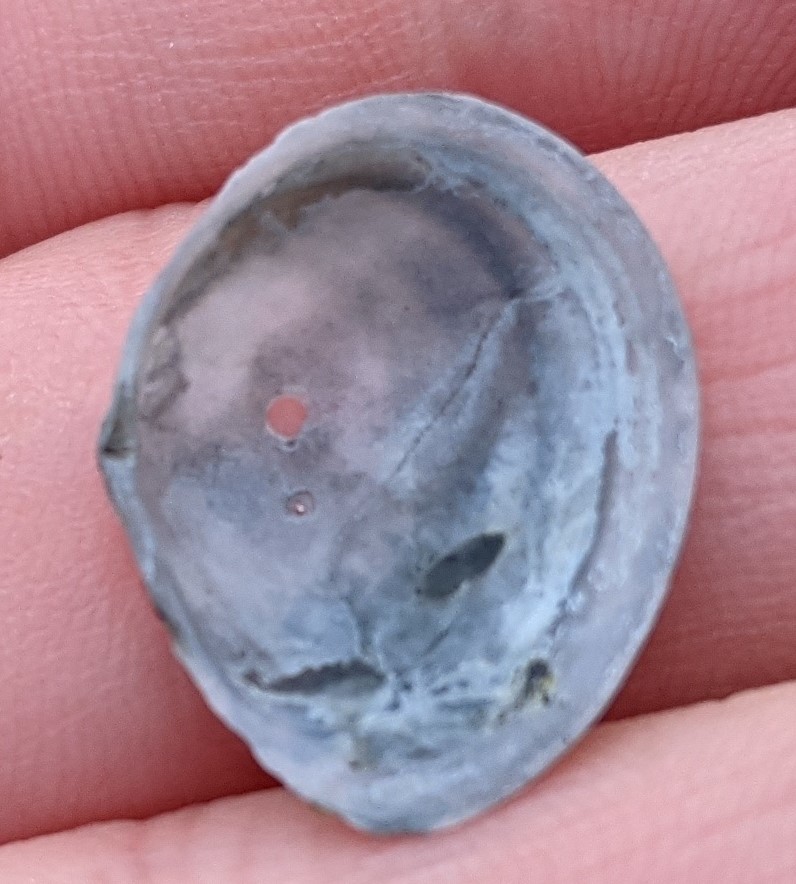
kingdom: Animalia
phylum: Mollusca
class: Bivalvia
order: Cardiida
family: Tellinidae
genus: Macoma
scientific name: Macoma petalum
